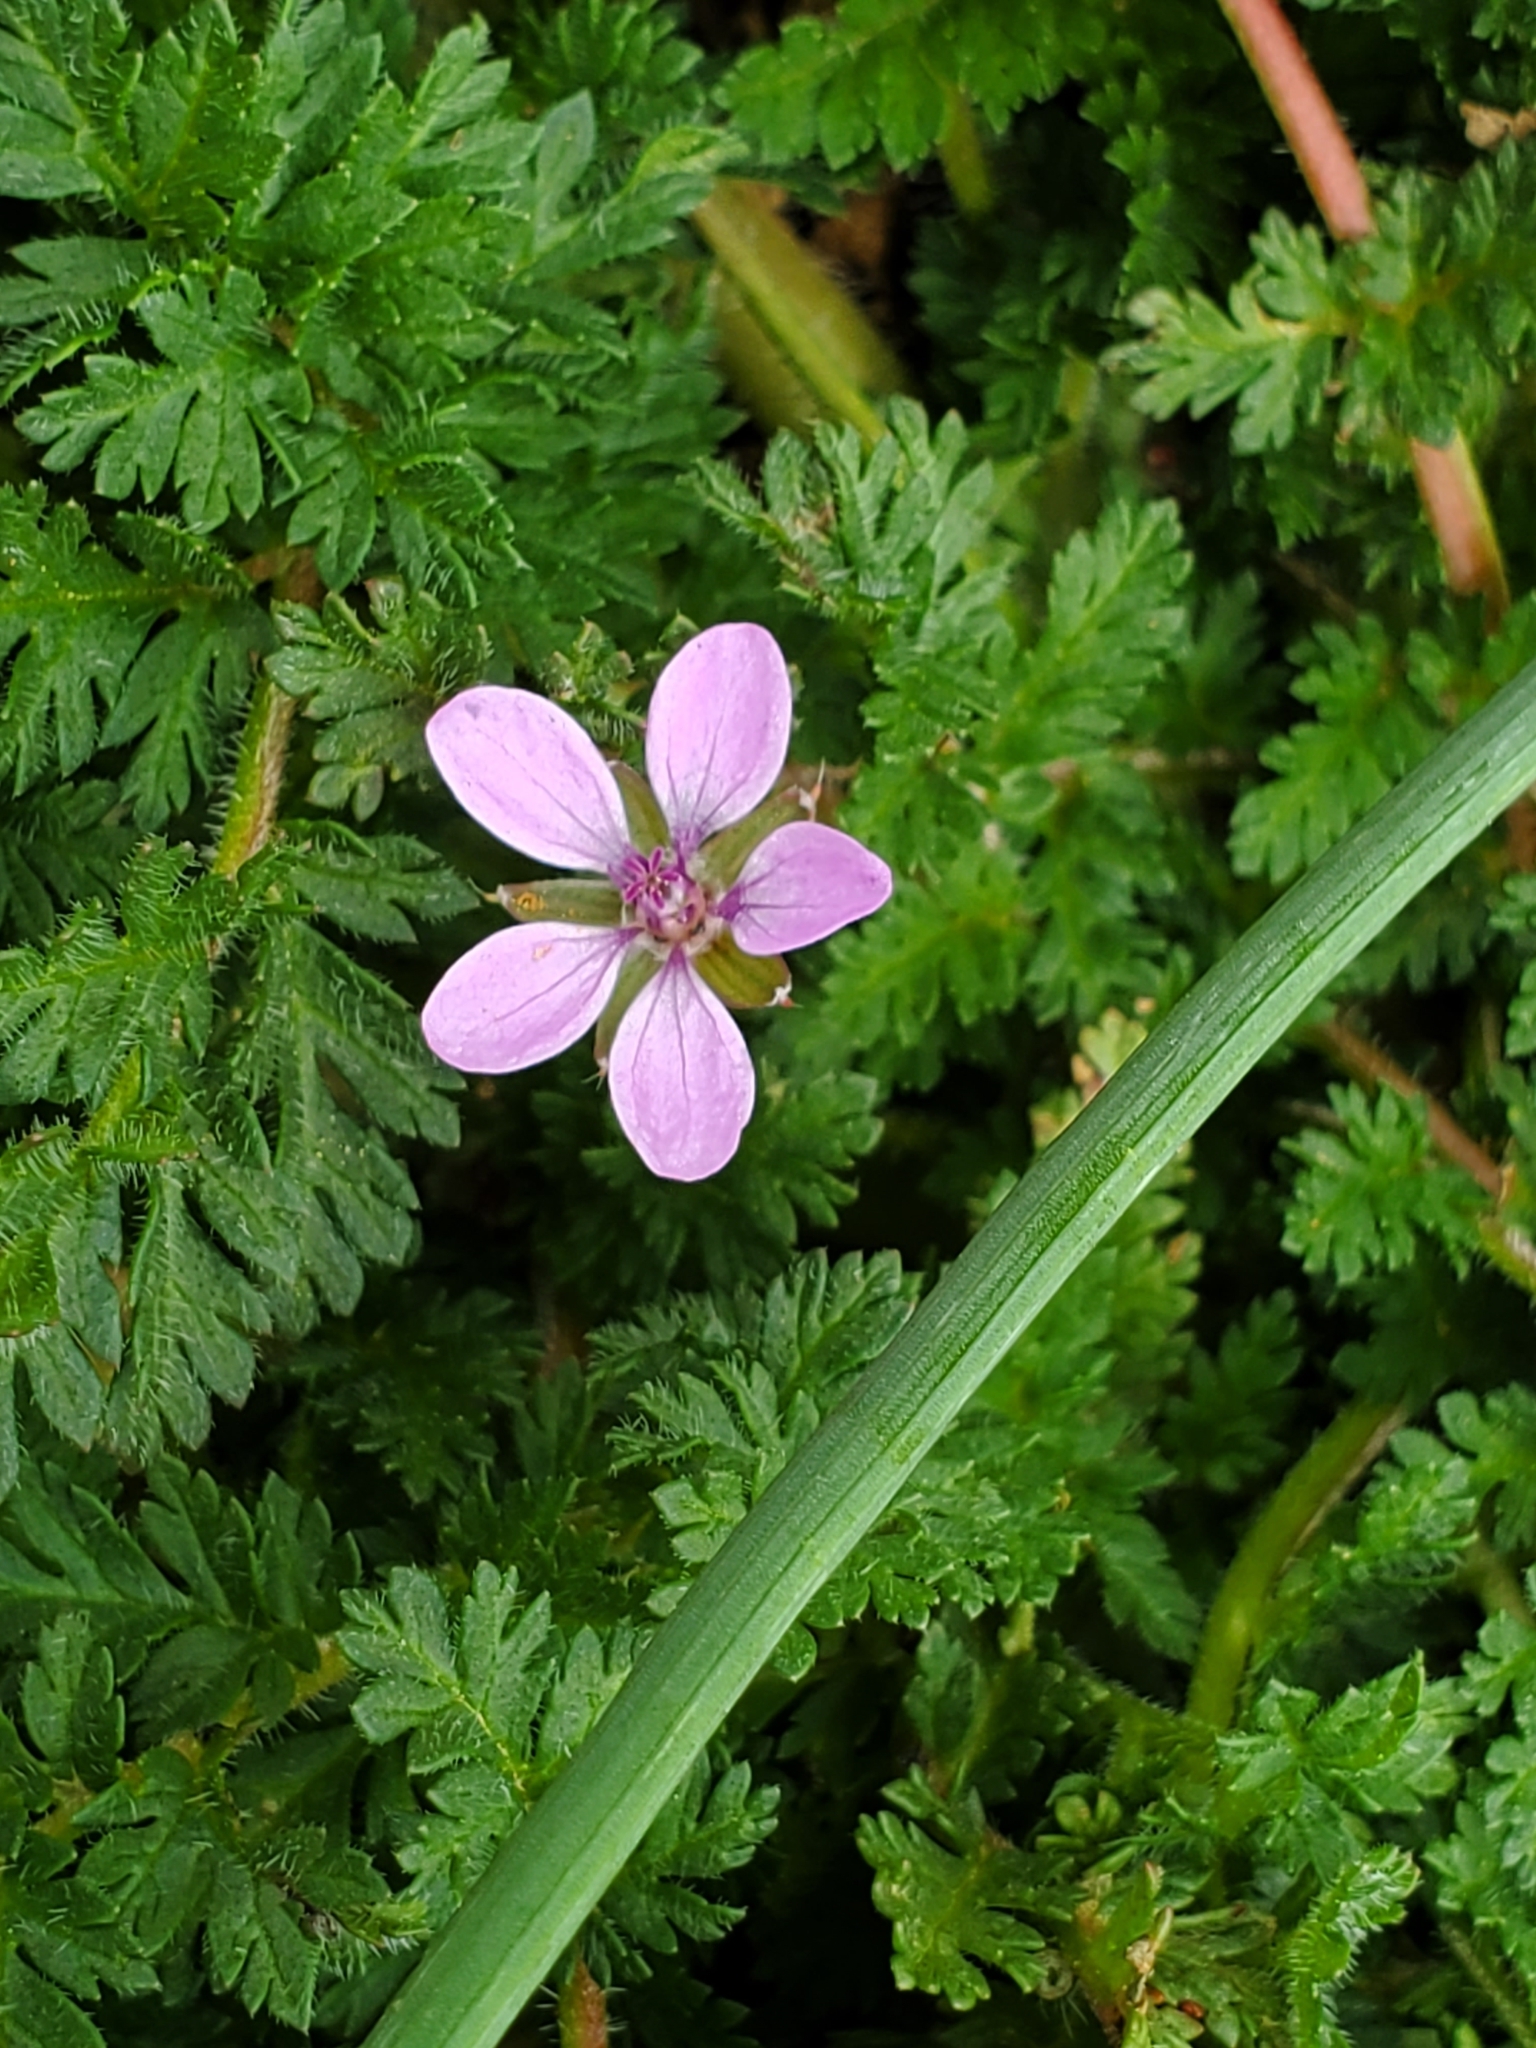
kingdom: Plantae
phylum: Tracheophyta
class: Magnoliopsida
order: Geraniales
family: Geraniaceae
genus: Erodium
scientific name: Erodium cicutarium
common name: Common stork's-bill
